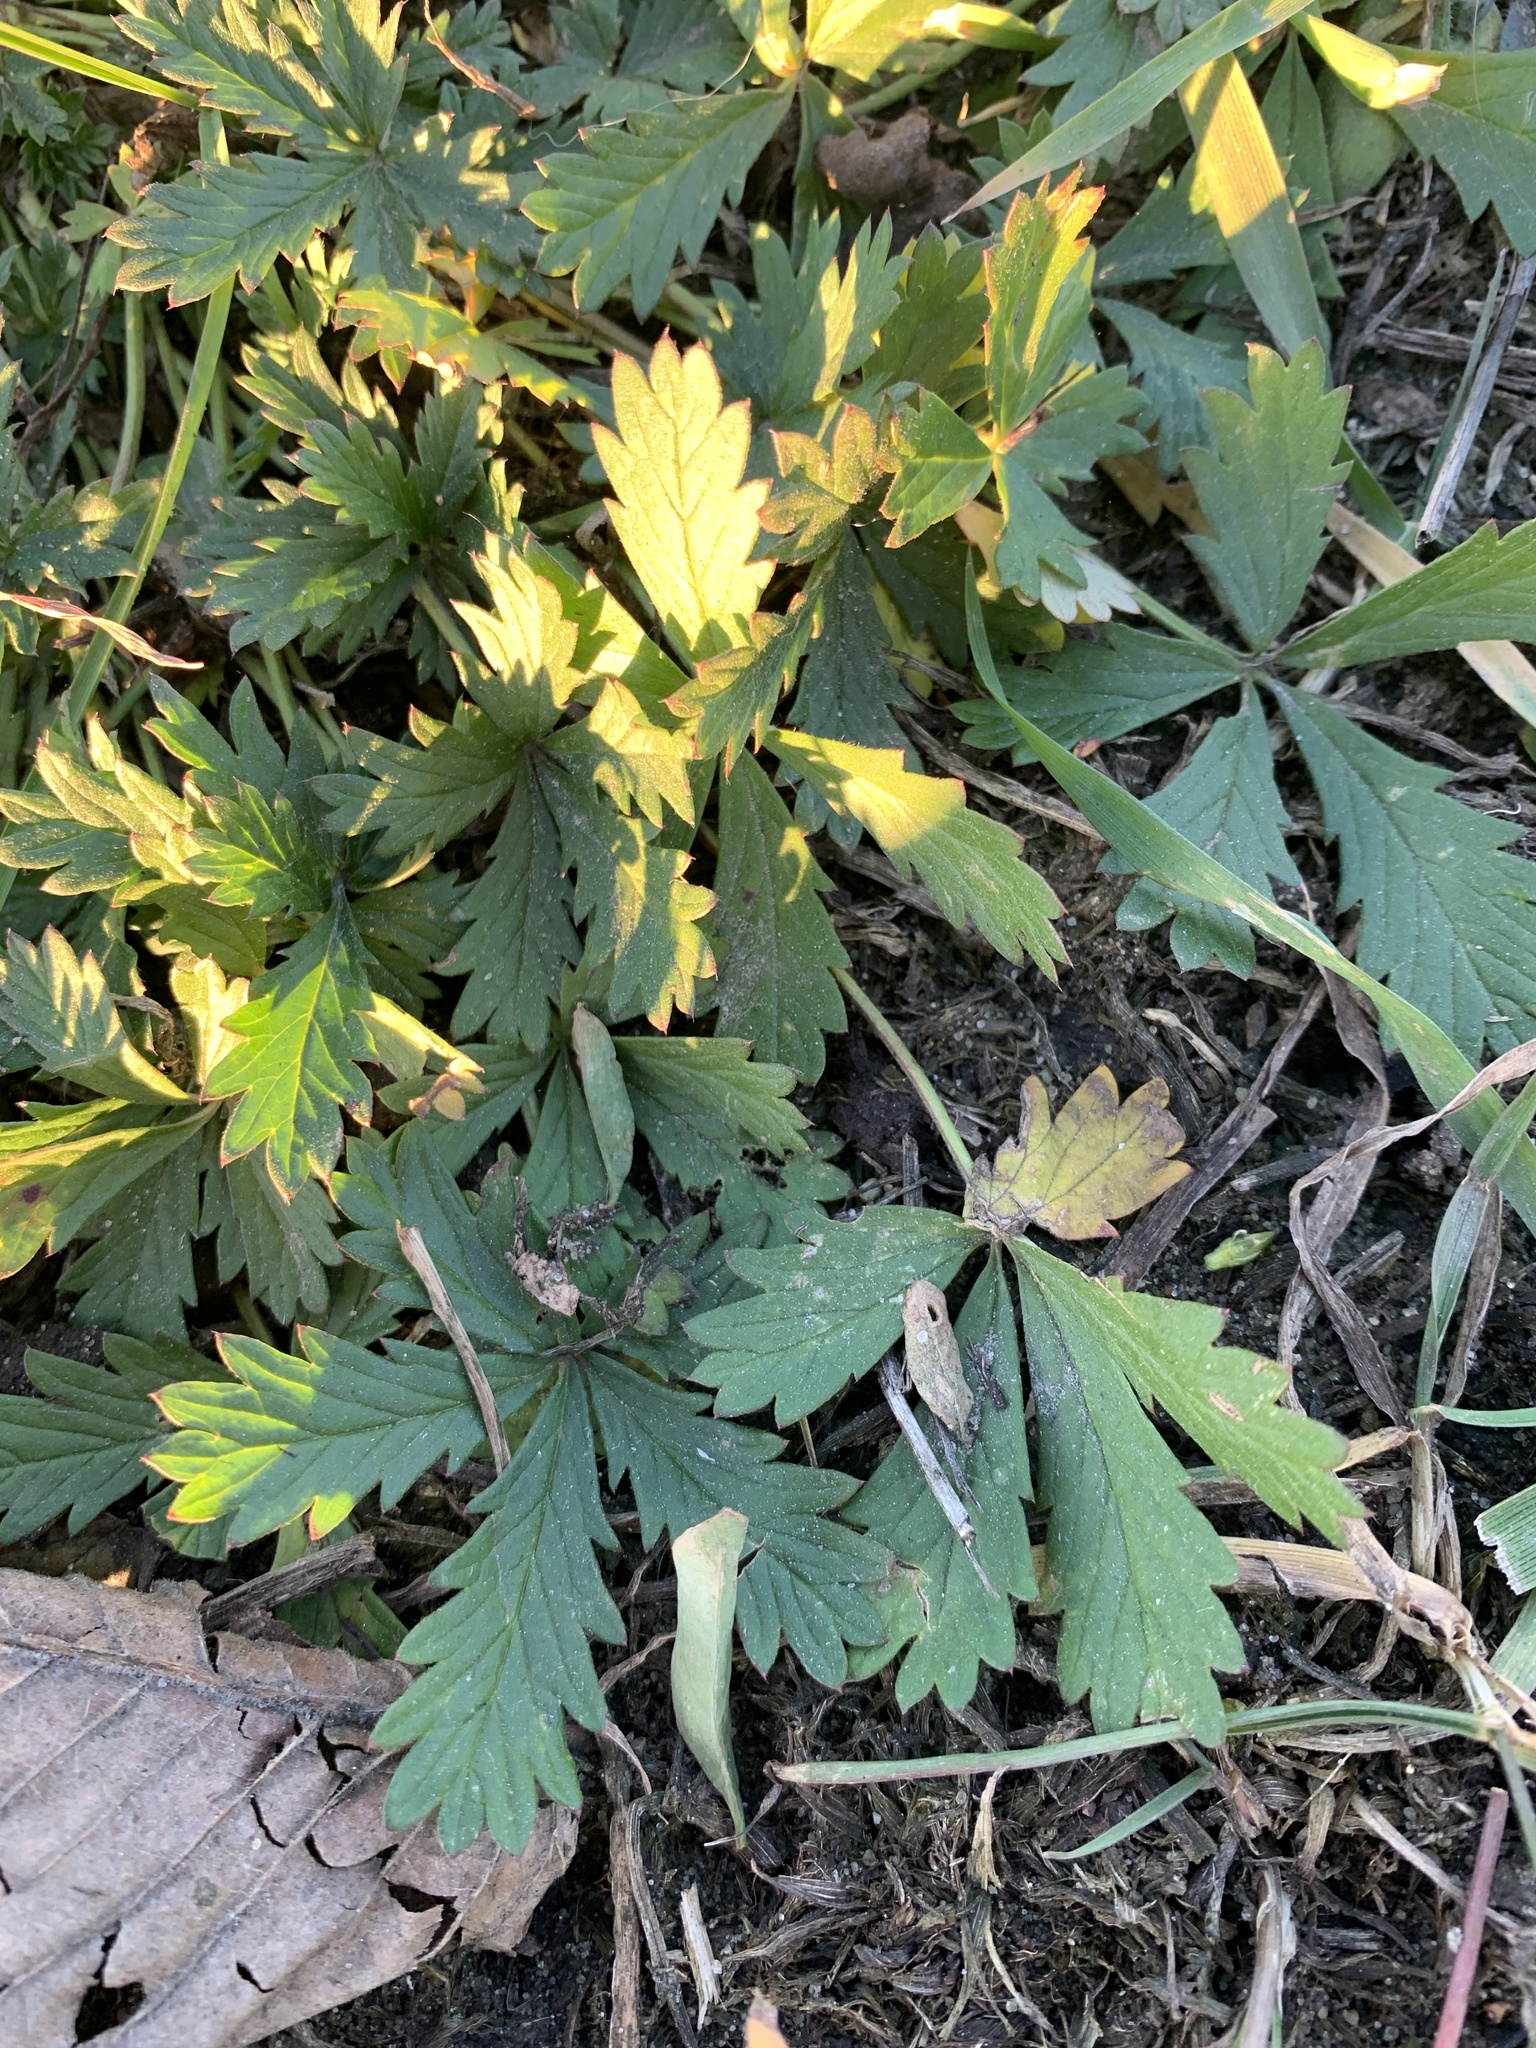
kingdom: Plantae
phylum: Tracheophyta
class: Magnoliopsida
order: Rosales
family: Rosaceae
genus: Potentilla
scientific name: Potentilla argentea
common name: Hoary cinquefoil
